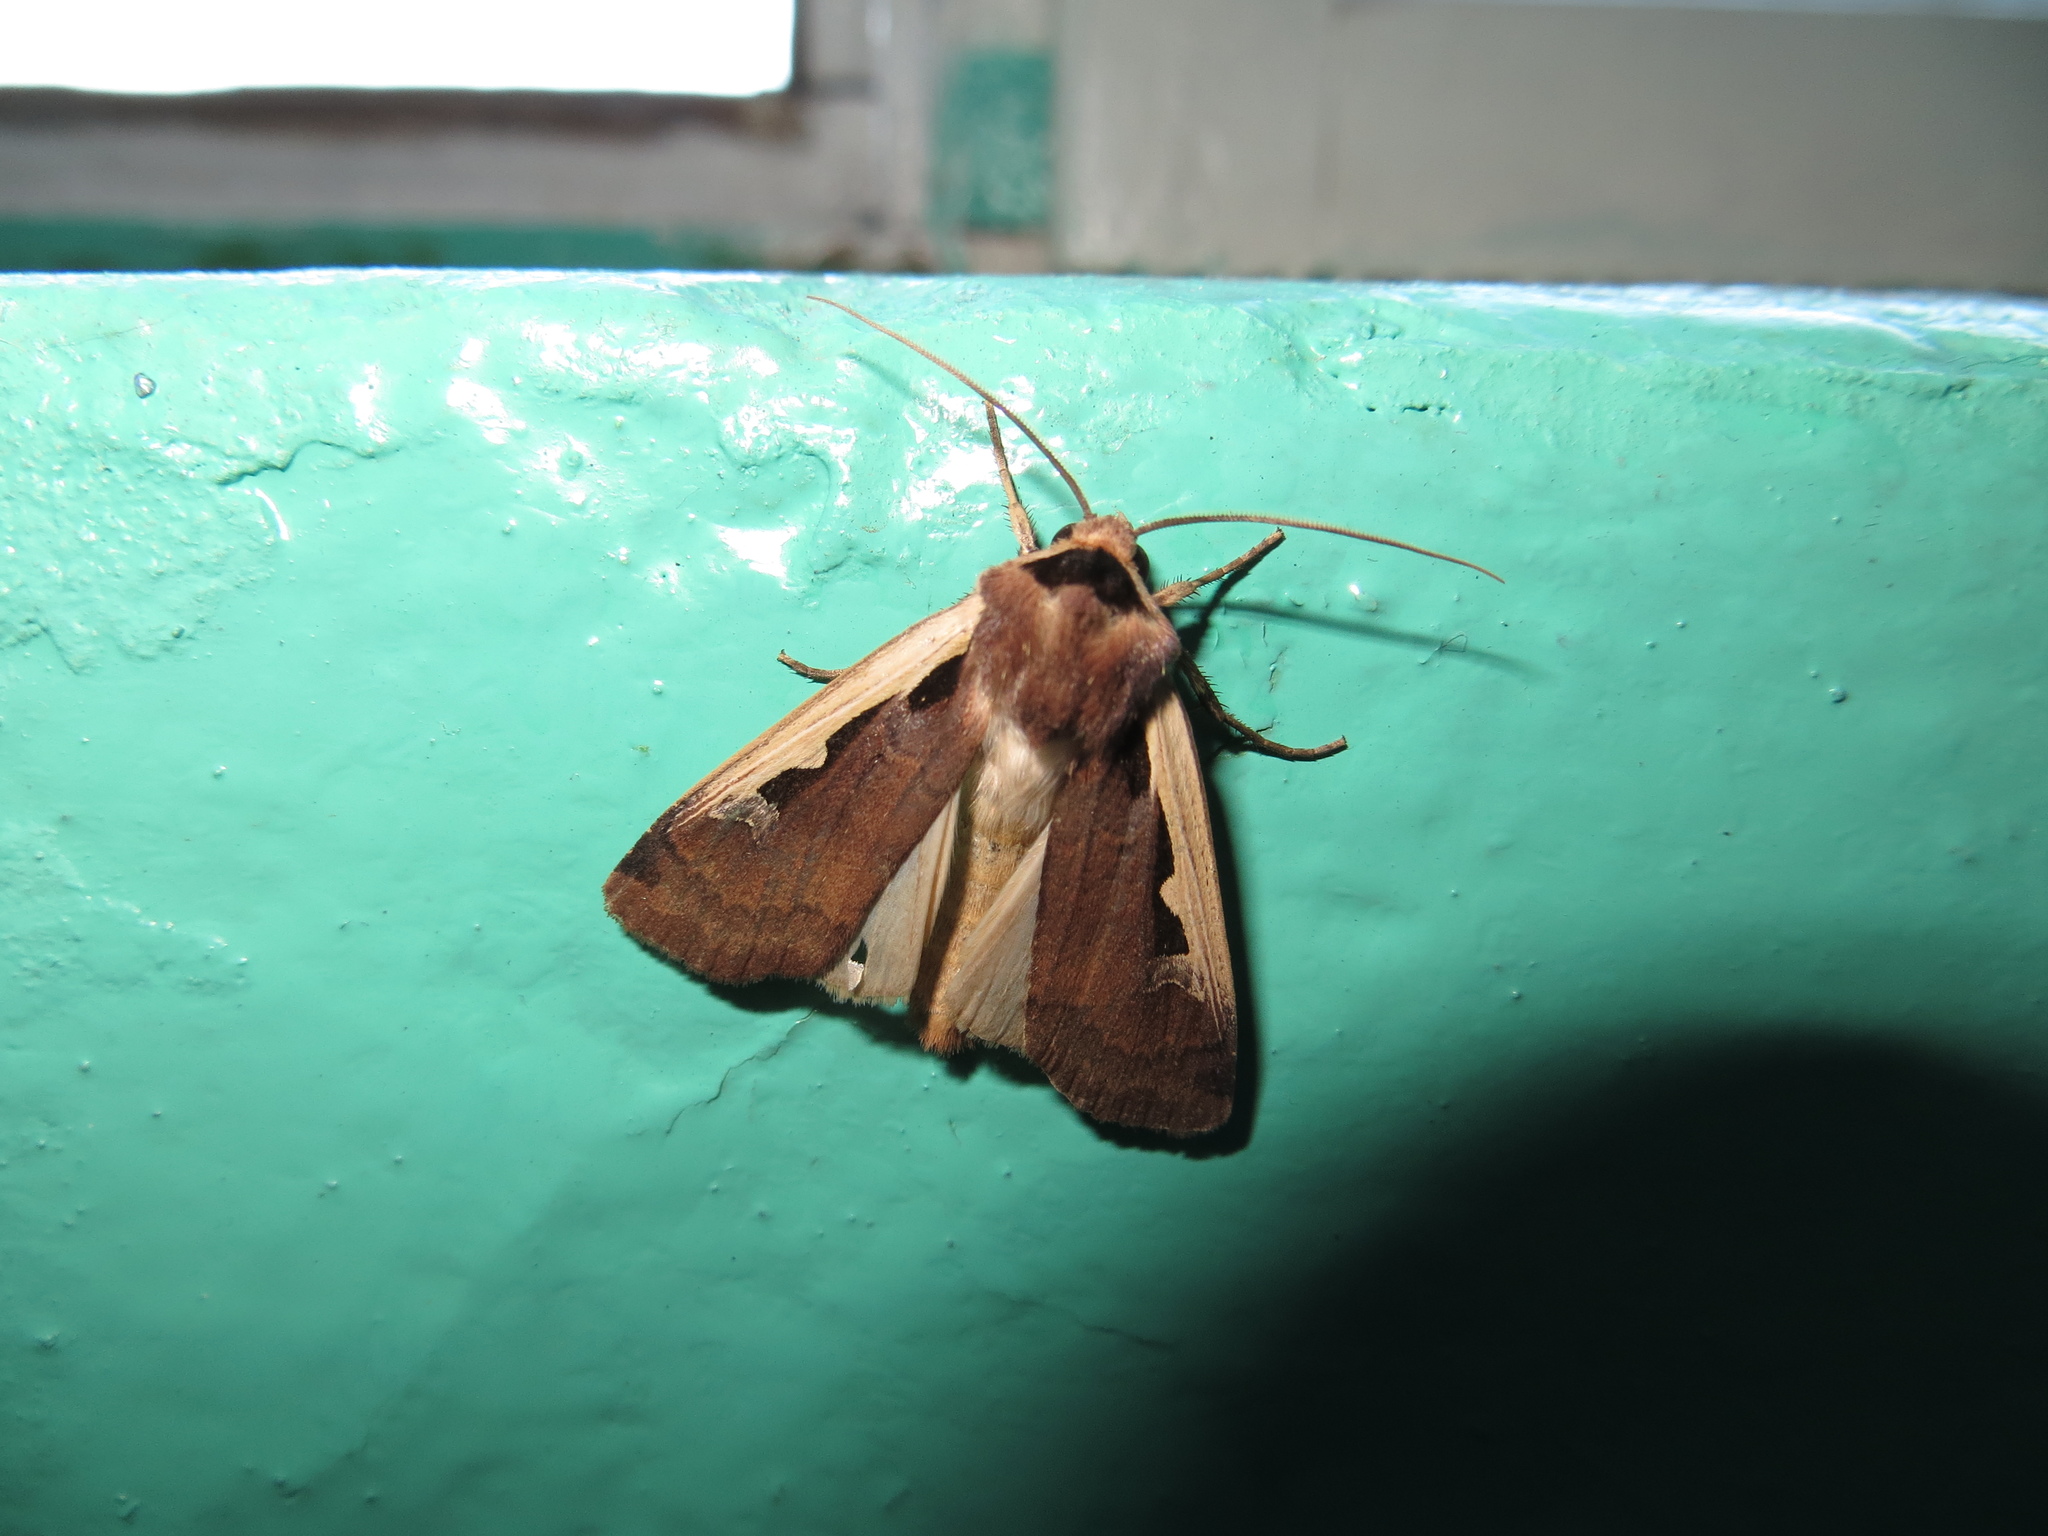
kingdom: Animalia
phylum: Arthropoda
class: Insecta
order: Lepidoptera
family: Noctuidae
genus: Dichagyris
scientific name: Dichagyris musiva
